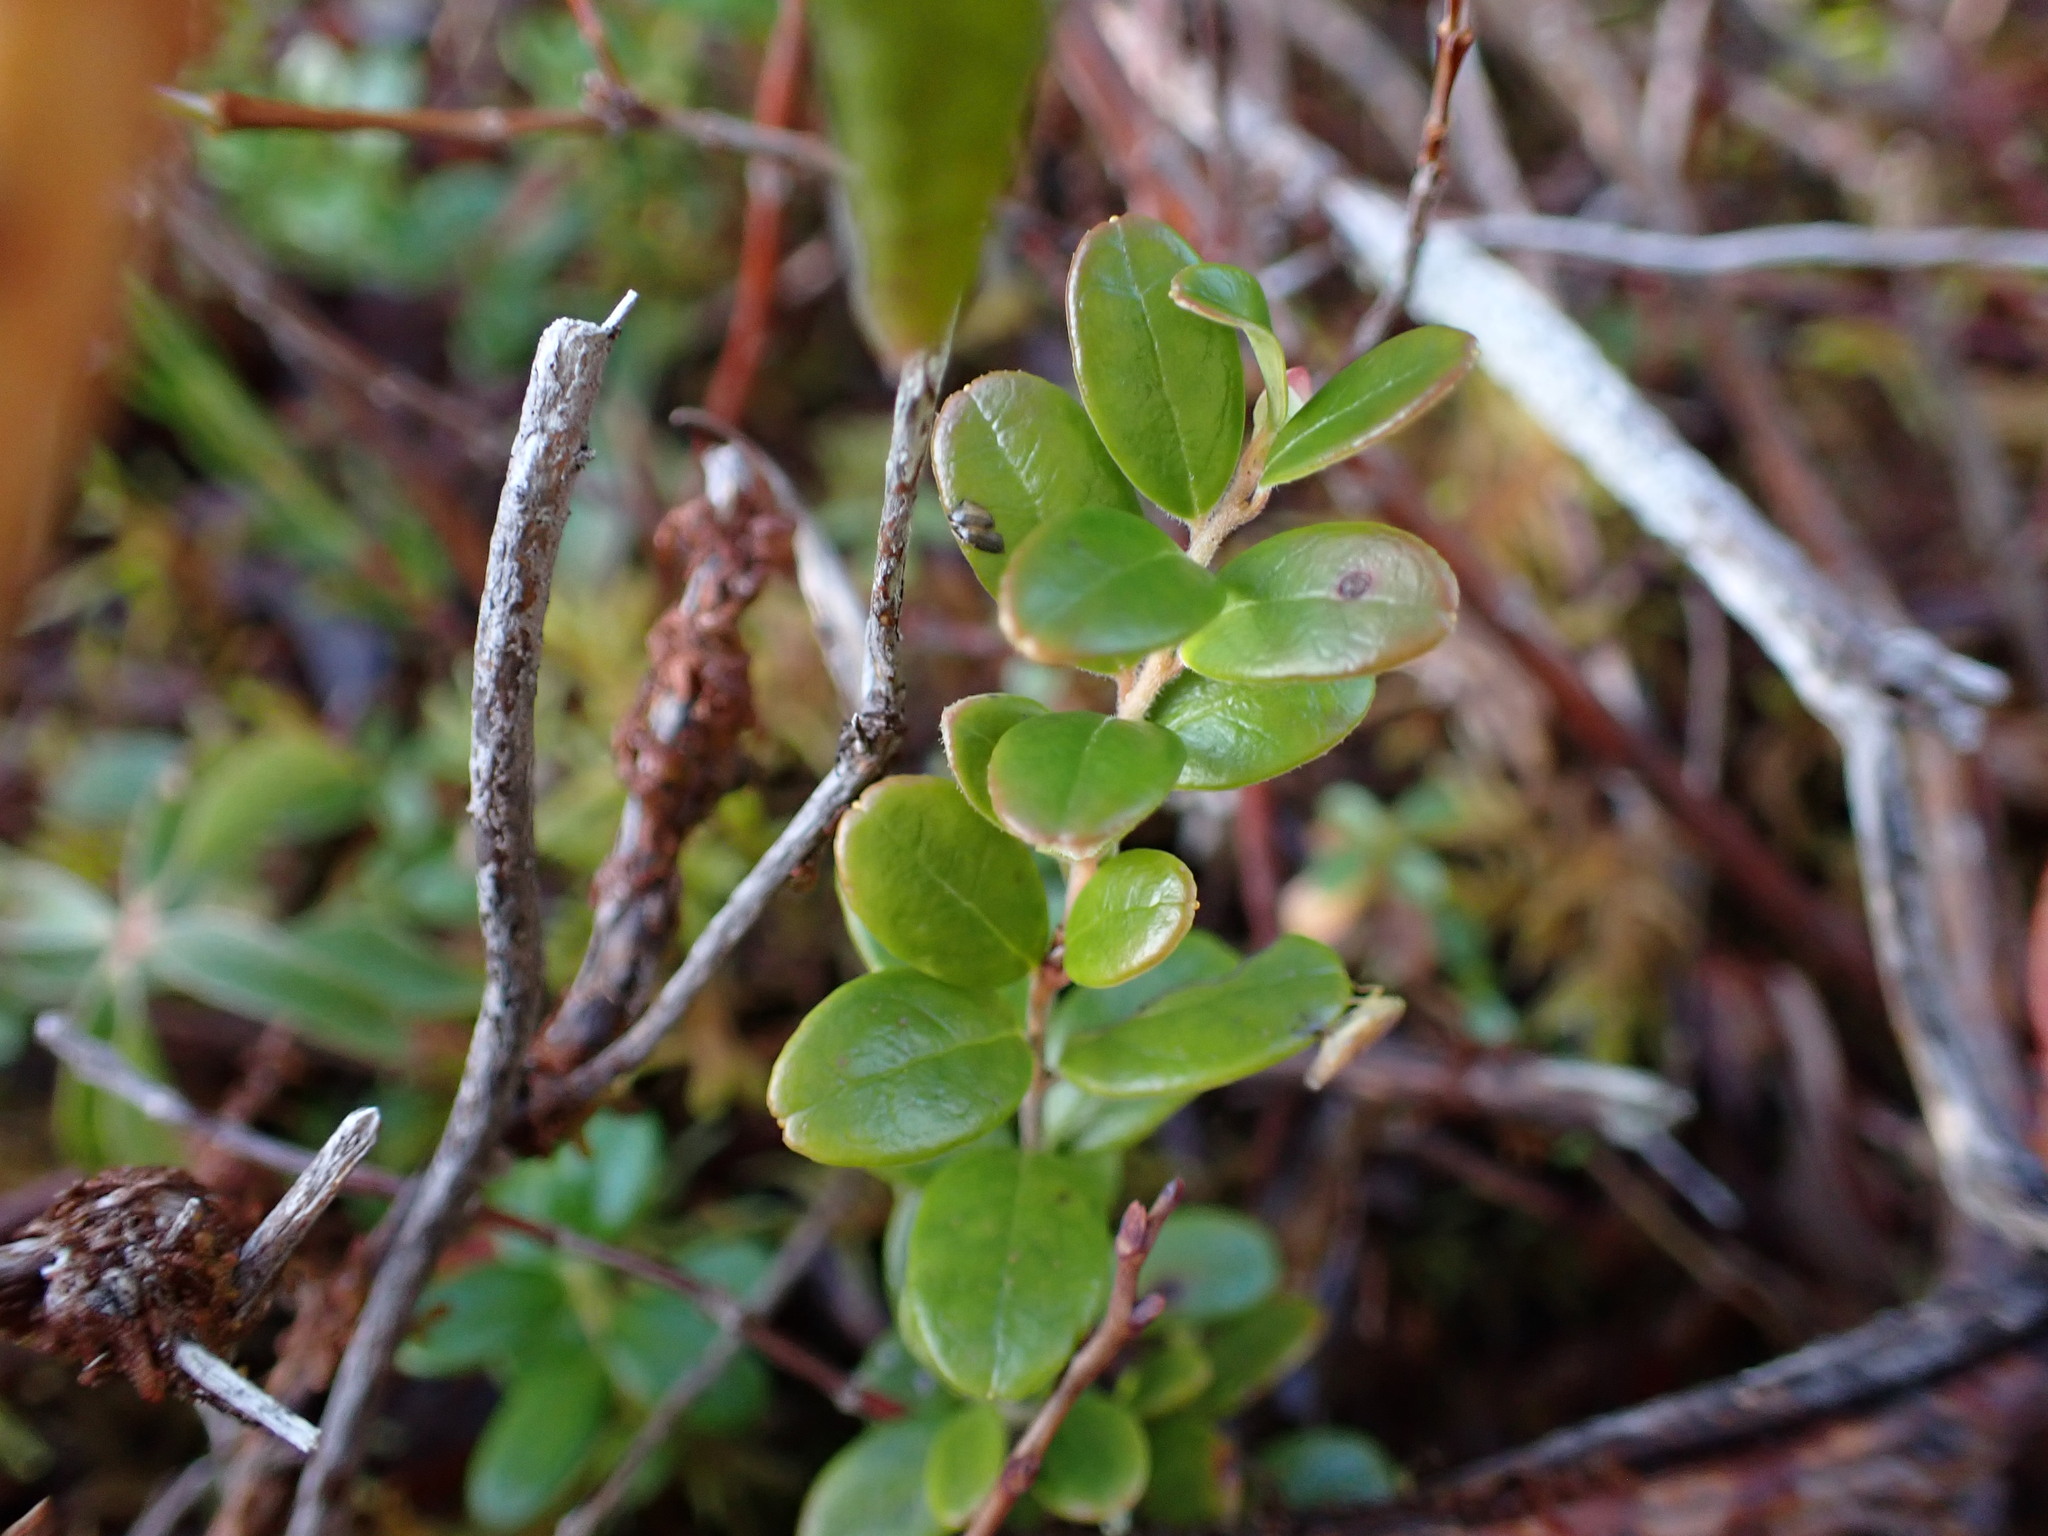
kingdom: Plantae
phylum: Tracheophyta
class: Magnoliopsida
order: Ericales
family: Ericaceae
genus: Vaccinium
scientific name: Vaccinium vitis-idaea
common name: Cowberry
